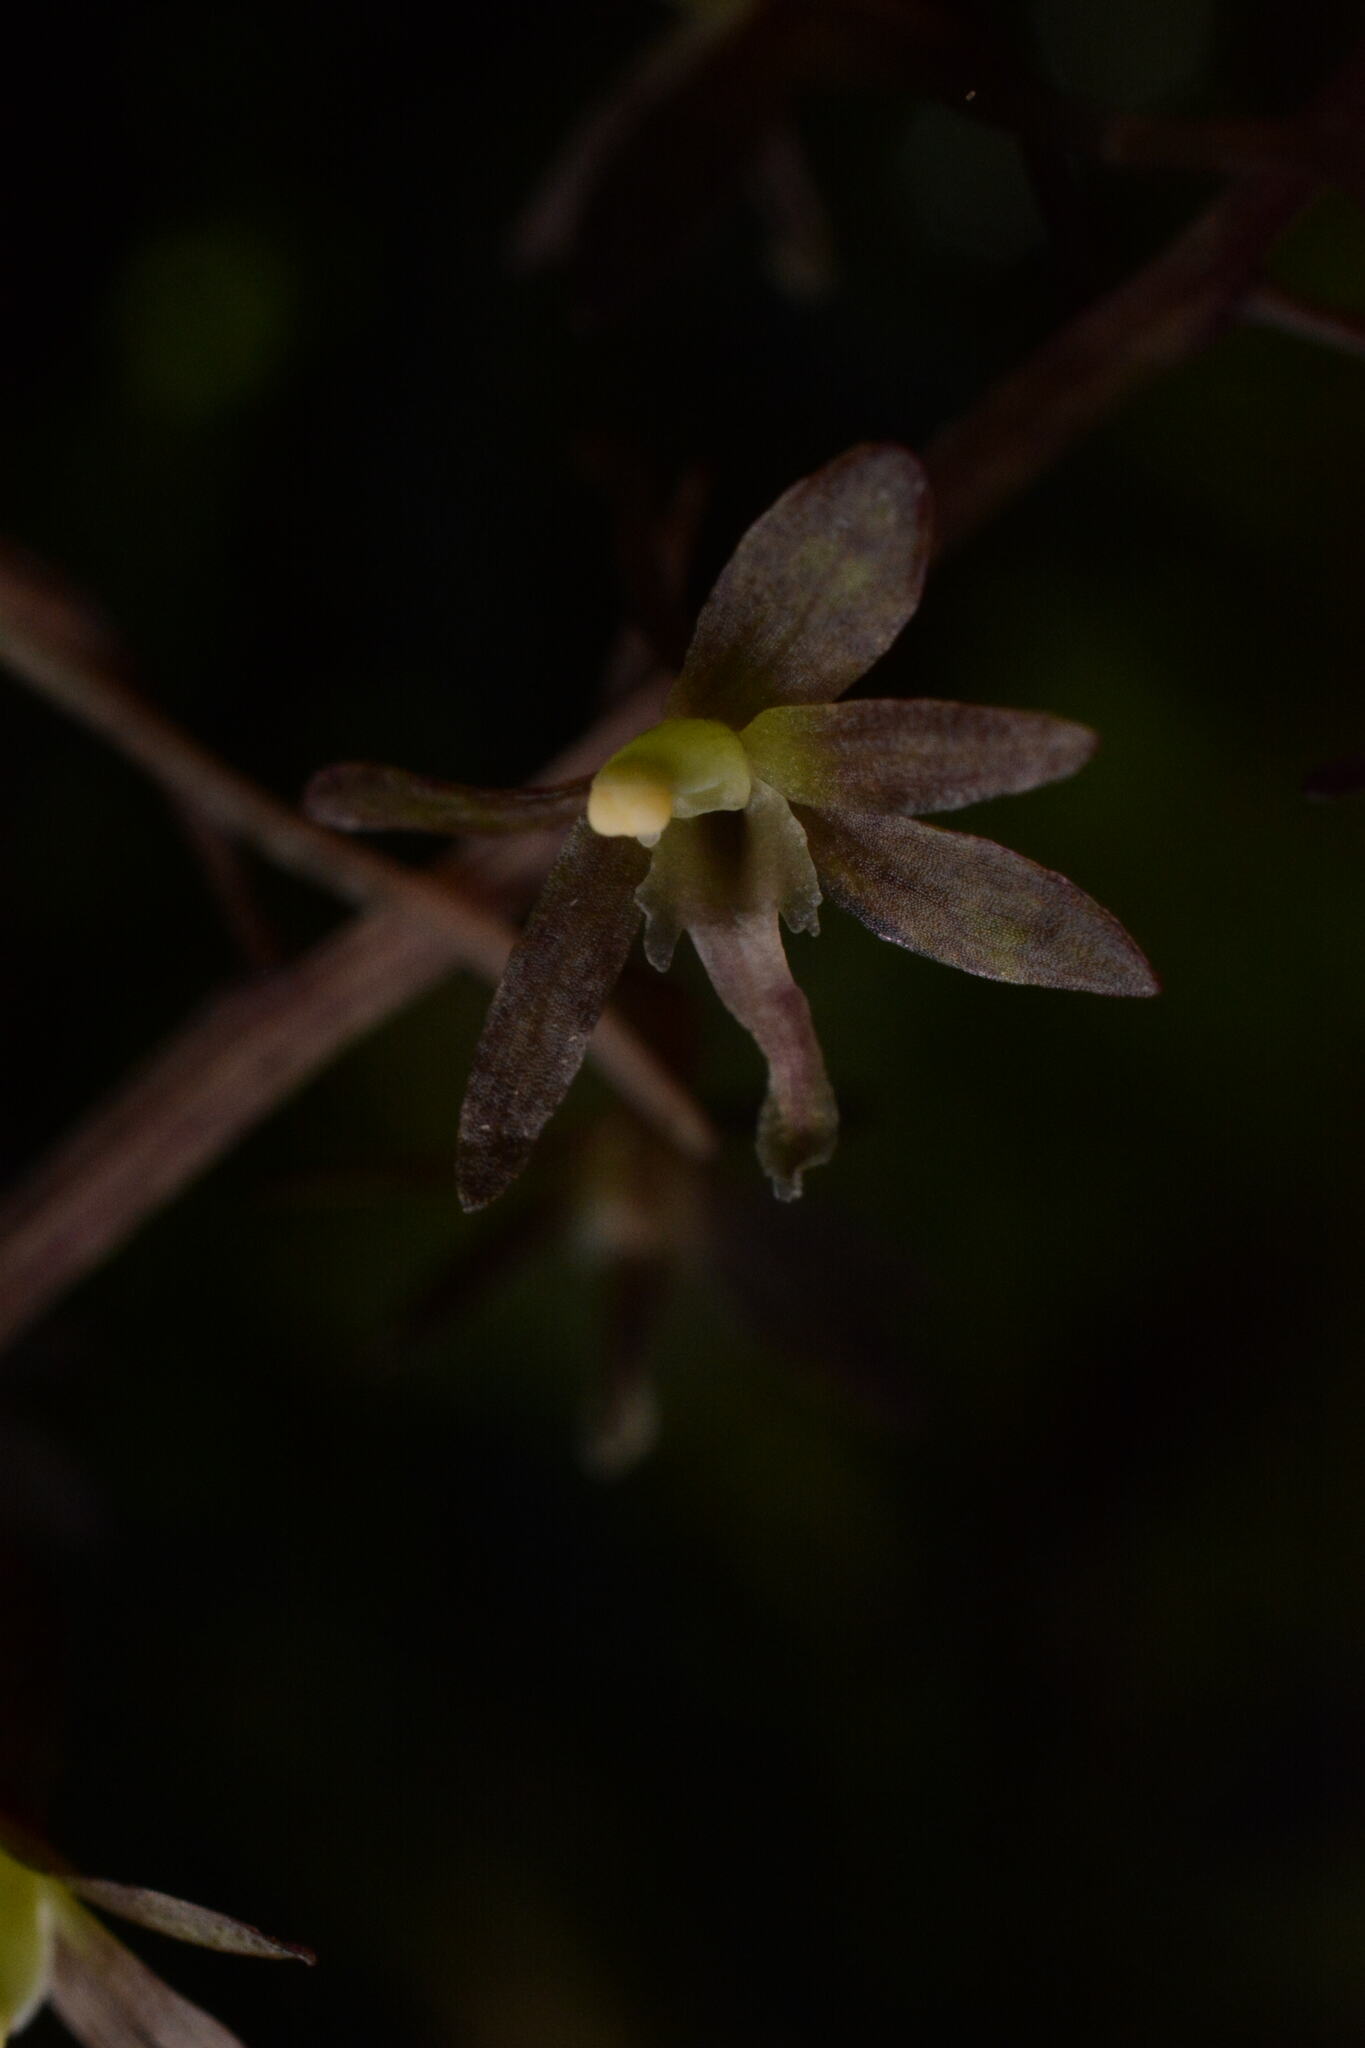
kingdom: Plantae
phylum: Tracheophyta
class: Liliopsida
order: Asparagales
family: Orchidaceae
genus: Tipularia
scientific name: Tipularia discolor
